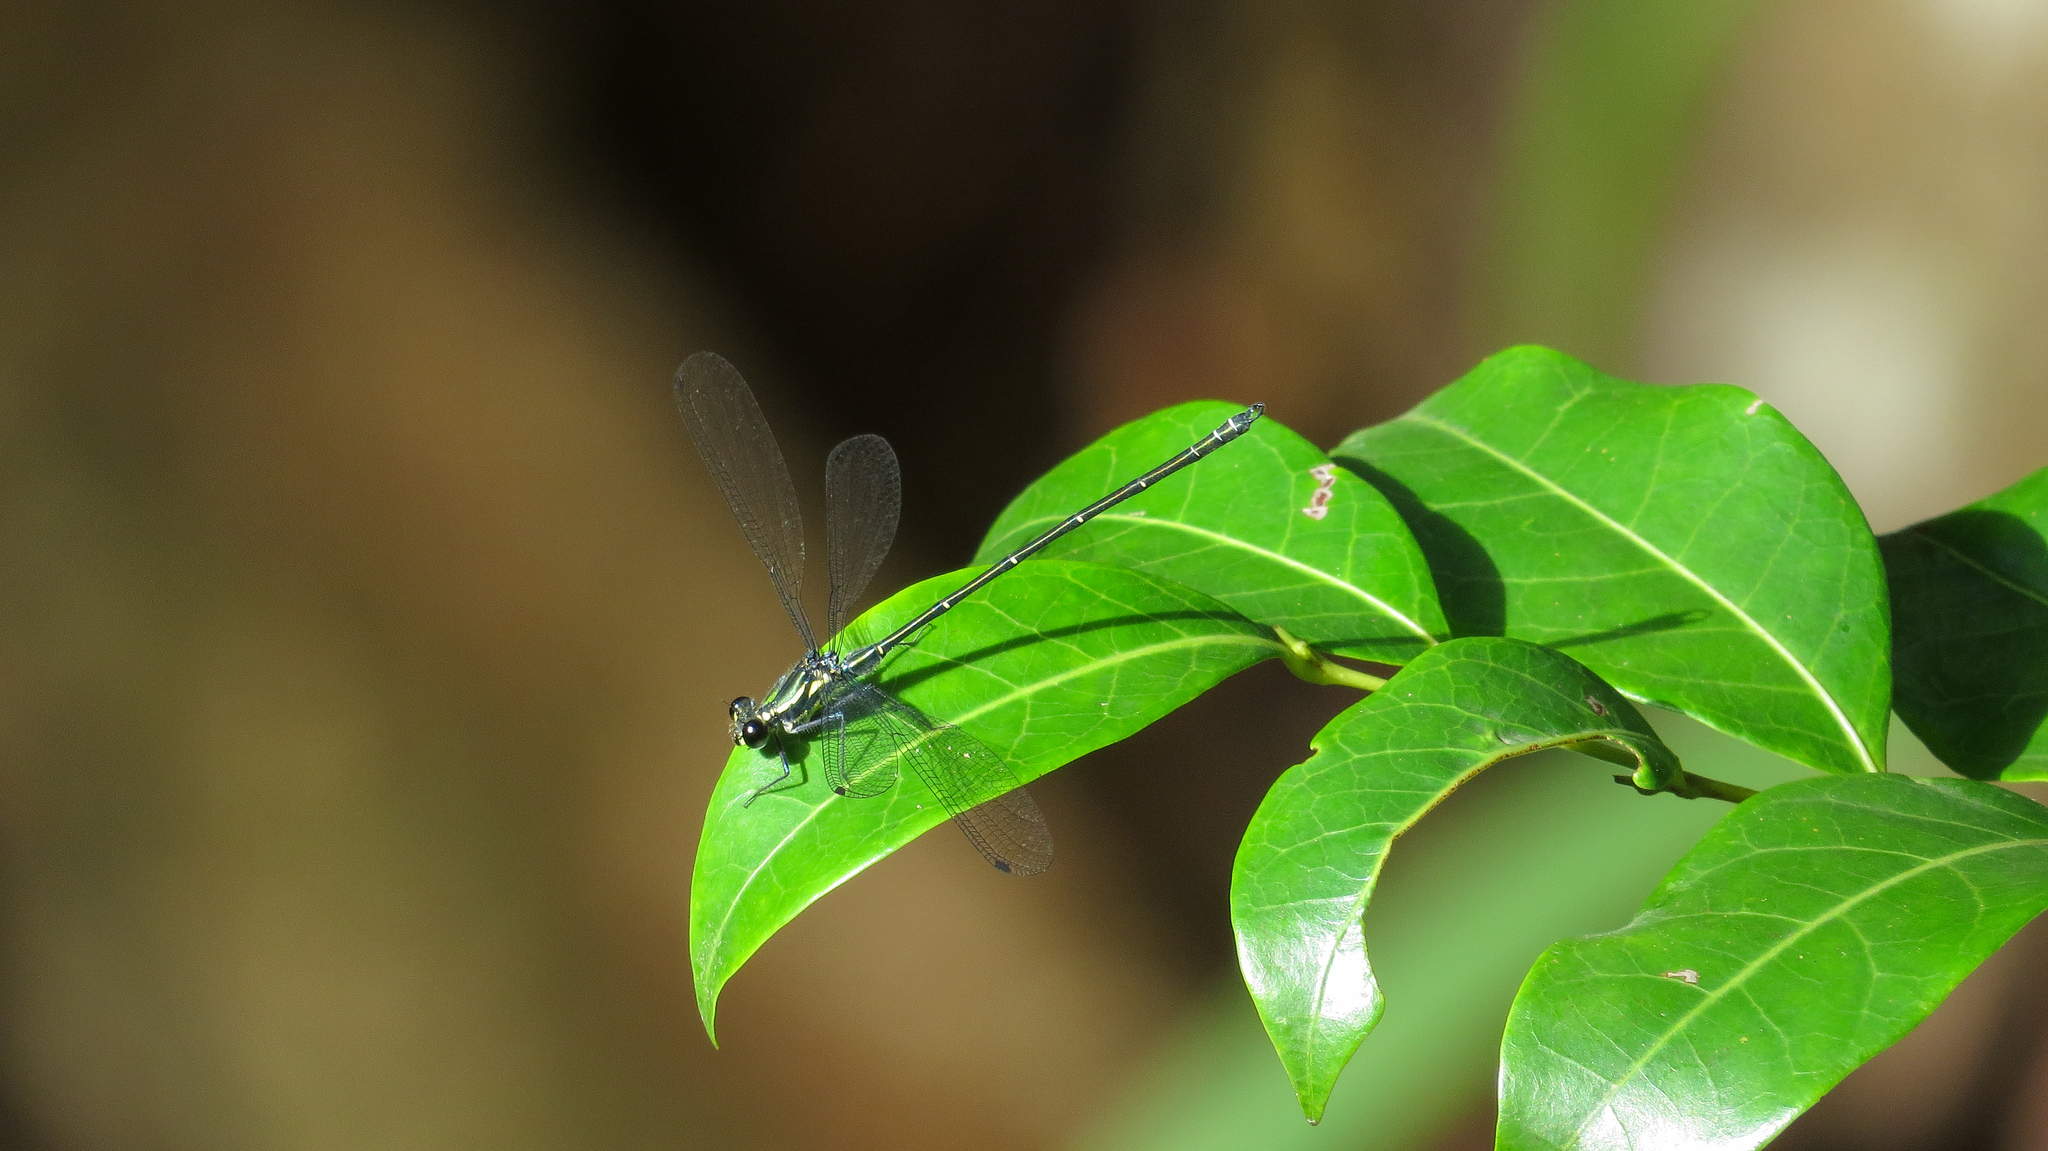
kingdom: Animalia
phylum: Arthropoda
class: Insecta
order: Odonata
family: Argiolestidae
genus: Austroargiolestes
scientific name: Austroargiolestes icteromelas
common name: Common flatwing
